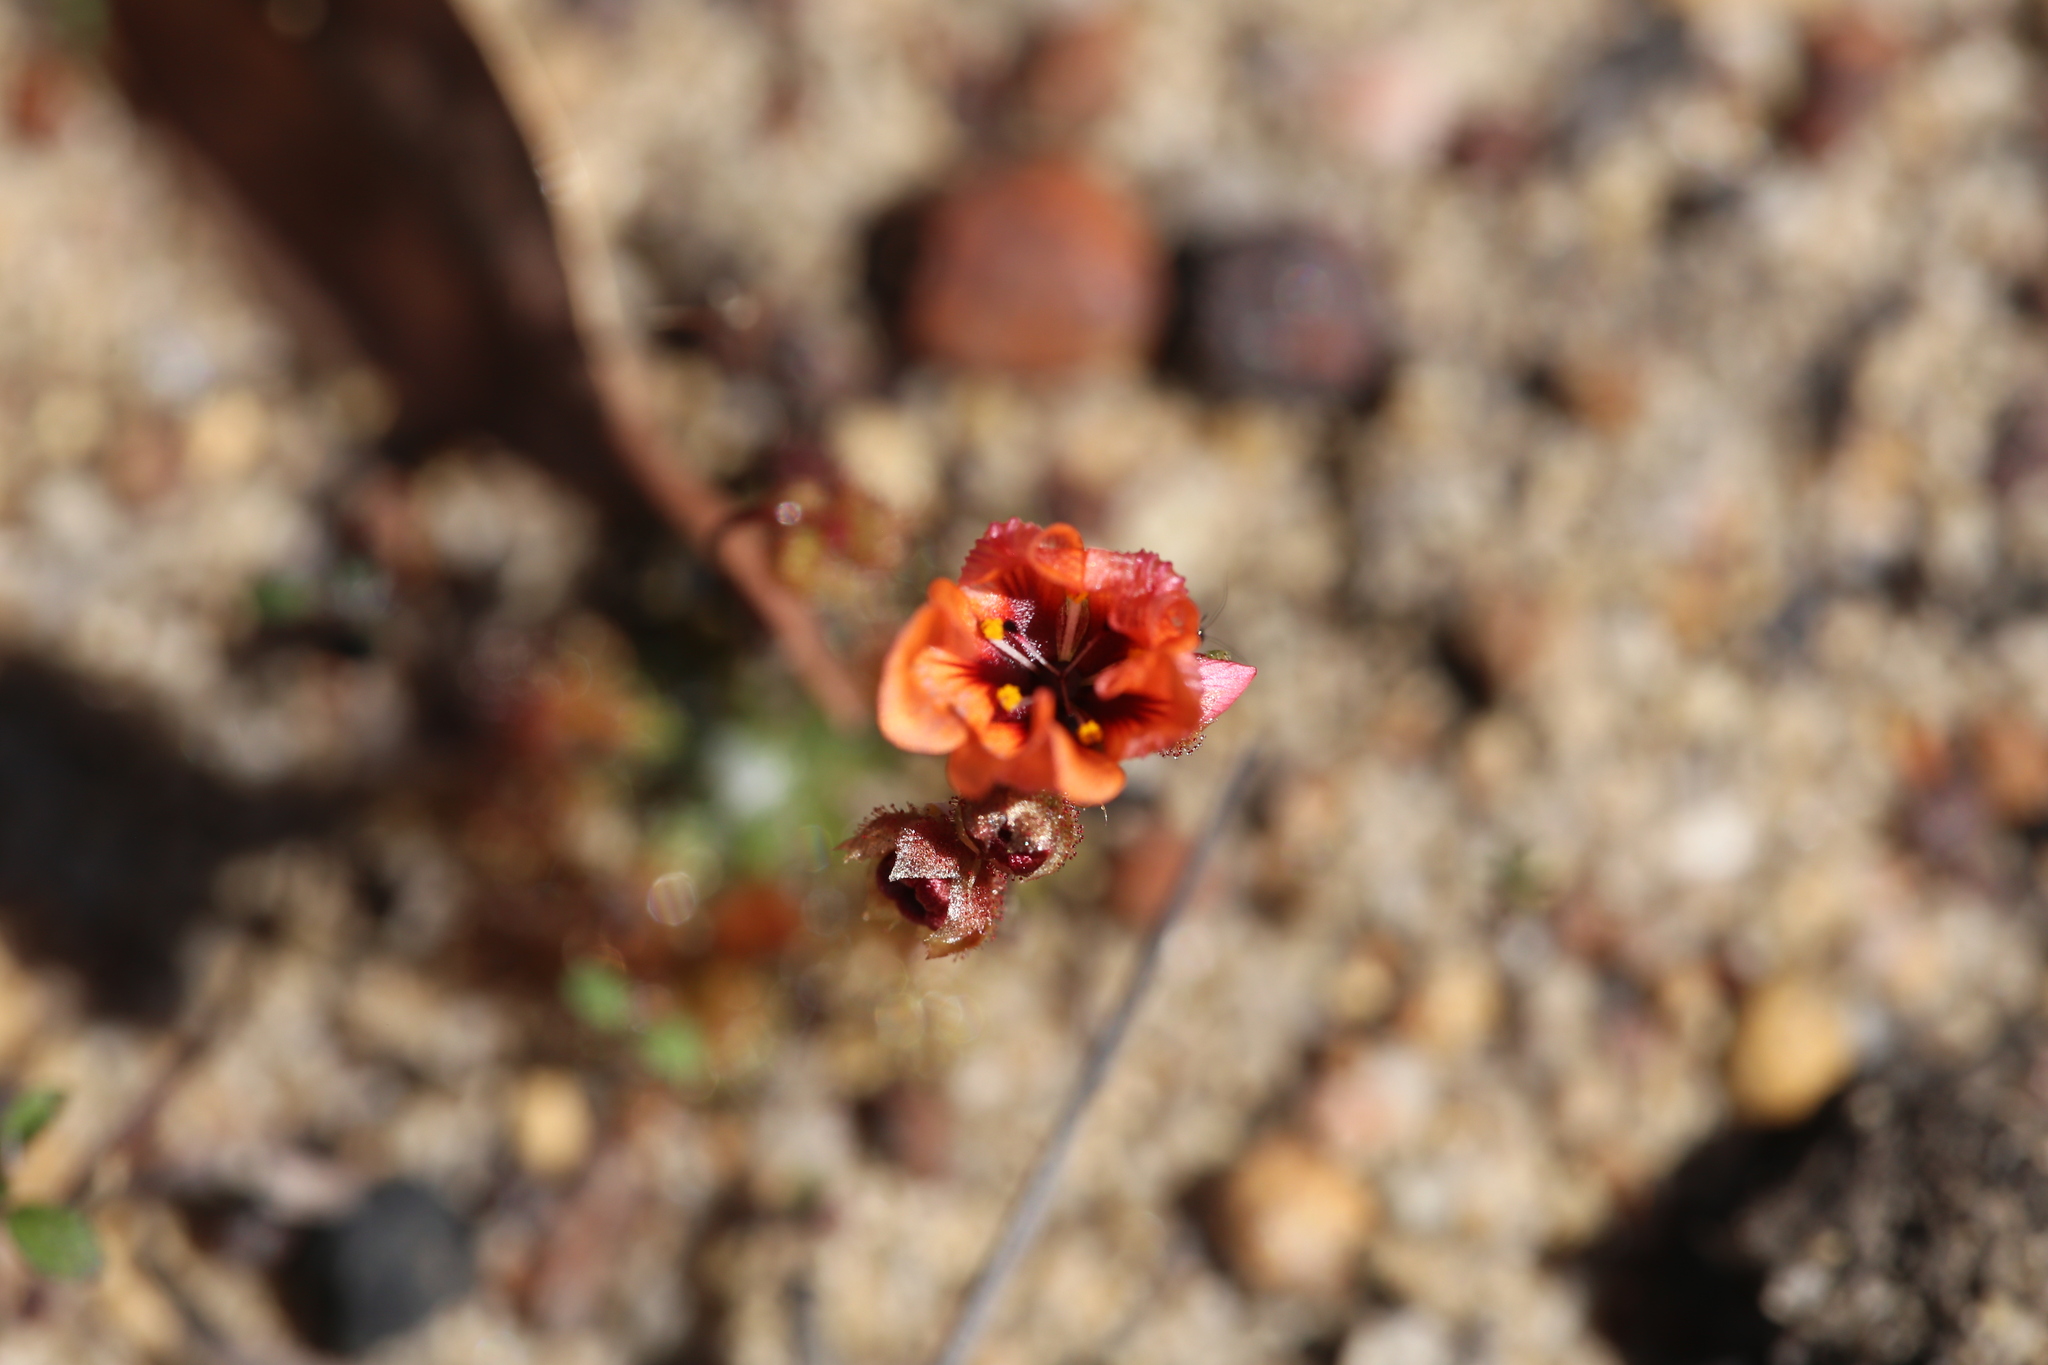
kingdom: Plantae
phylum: Tracheophyta
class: Magnoliopsida
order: Caryophyllales
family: Droseraceae
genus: Drosera
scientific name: Drosera platystigma
